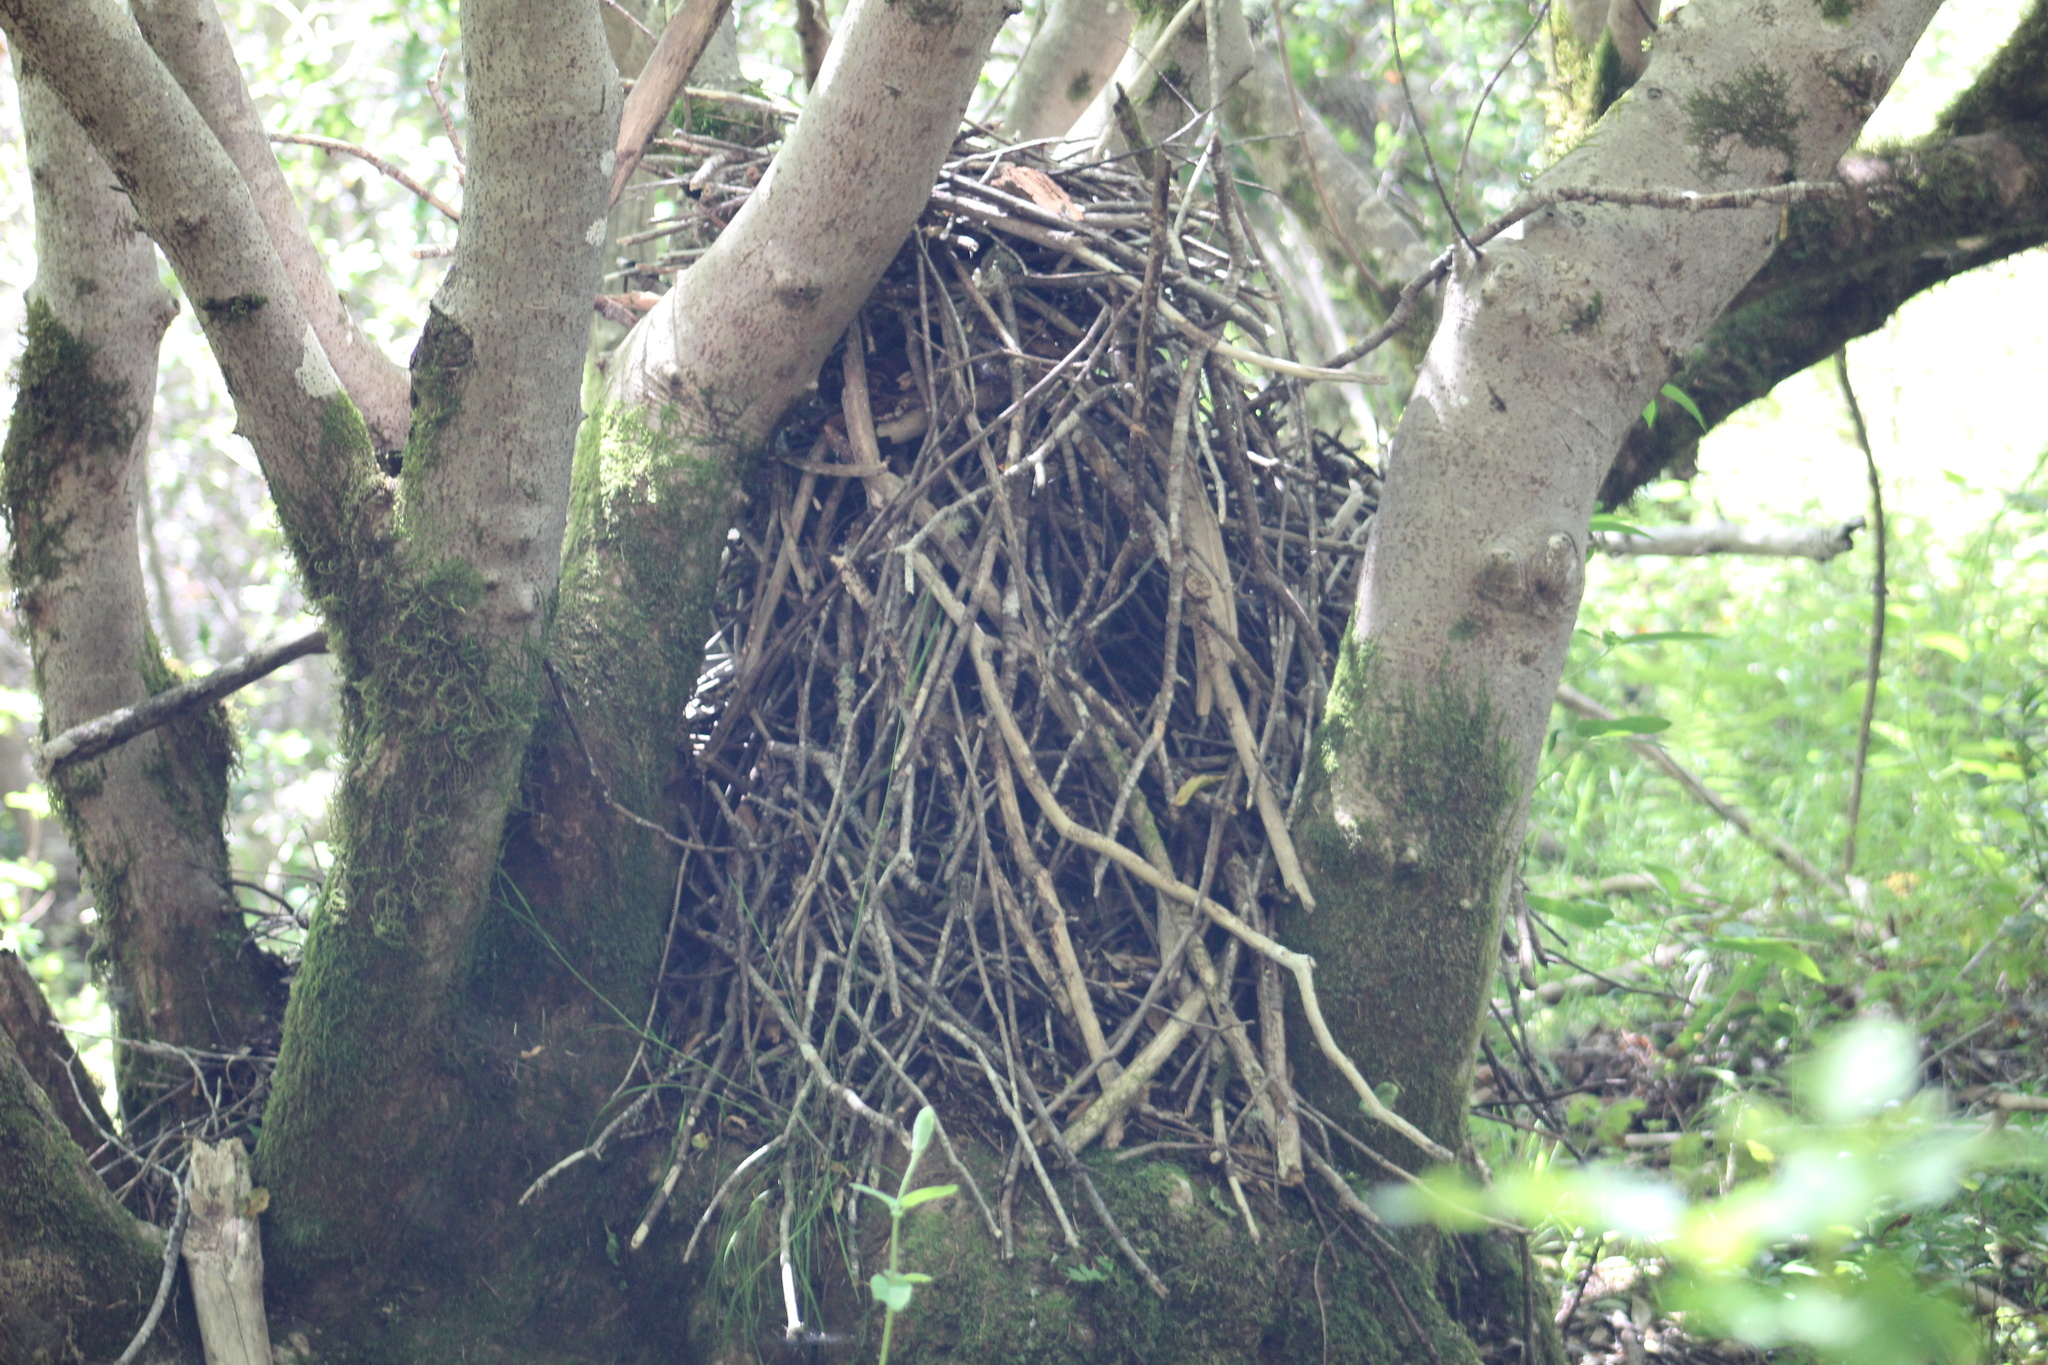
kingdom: Animalia
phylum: Chordata
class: Mammalia
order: Rodentia
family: Cricetidae
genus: Neotoma
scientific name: Neotoma fuscipes
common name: Dusky-footed woodrat
